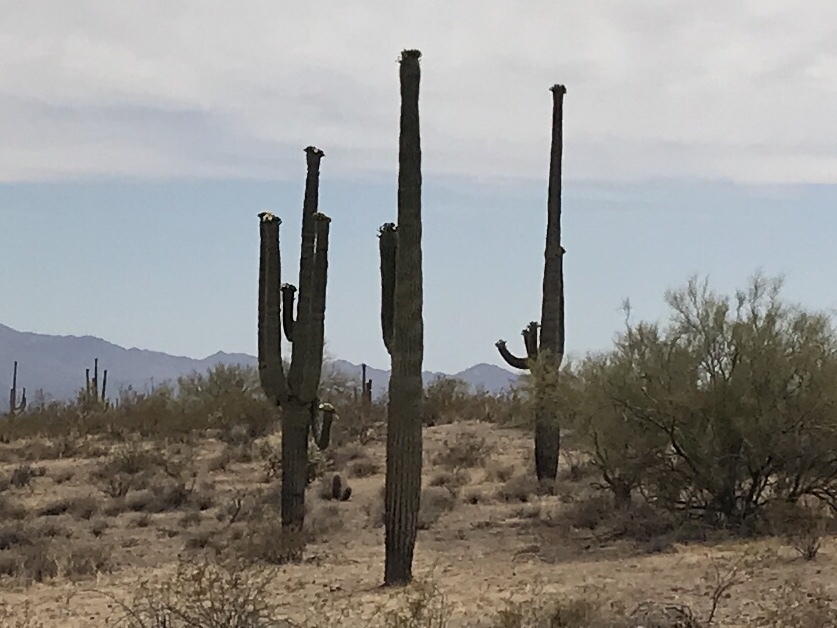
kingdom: Plantae
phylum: Tracheophyta
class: Magnoliopsida
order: Caryophyllales
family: Cactaceae
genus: Carnegiea
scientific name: Carnegiea gigantea
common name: Saguaro
